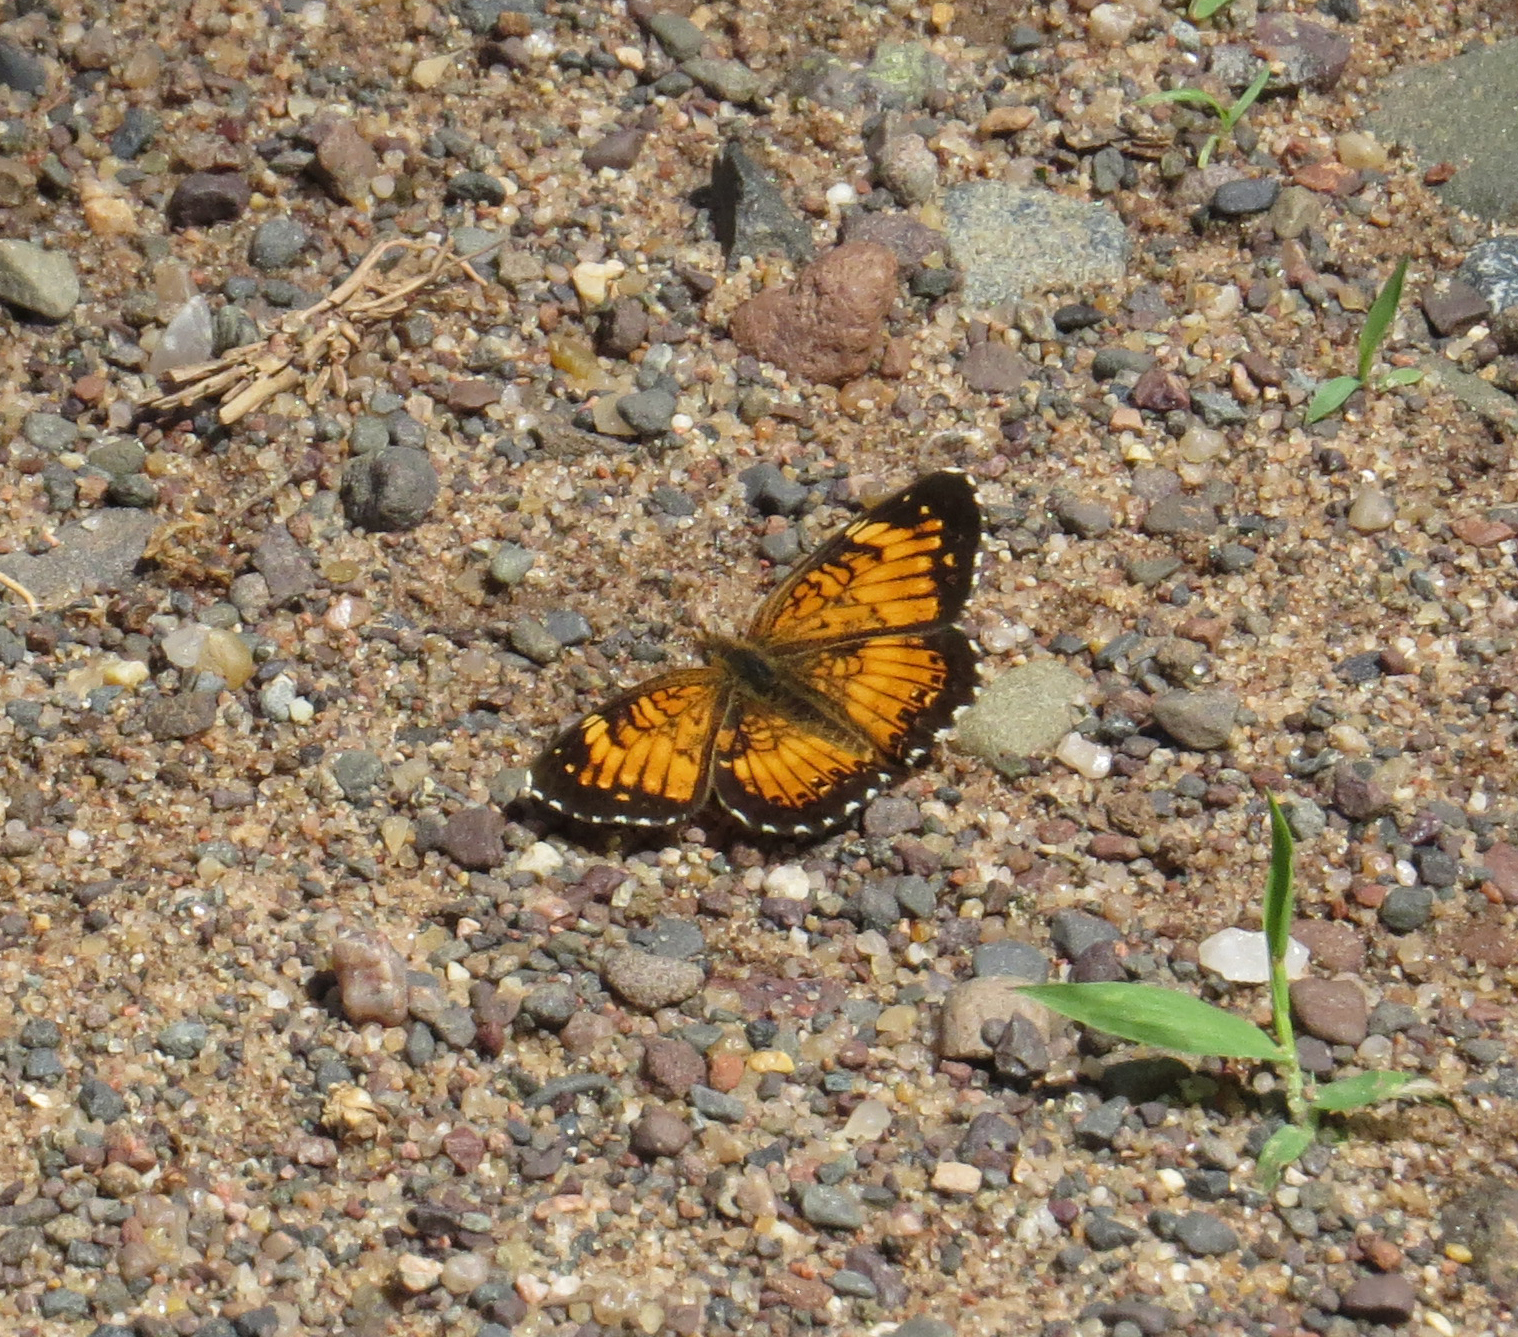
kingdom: Animalia
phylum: Arthropoda
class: Insecta
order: Lepidoptera
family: Nymphalidae
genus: Chlosyne
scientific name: Chlosyne harrisii
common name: Harris's checkerspot
